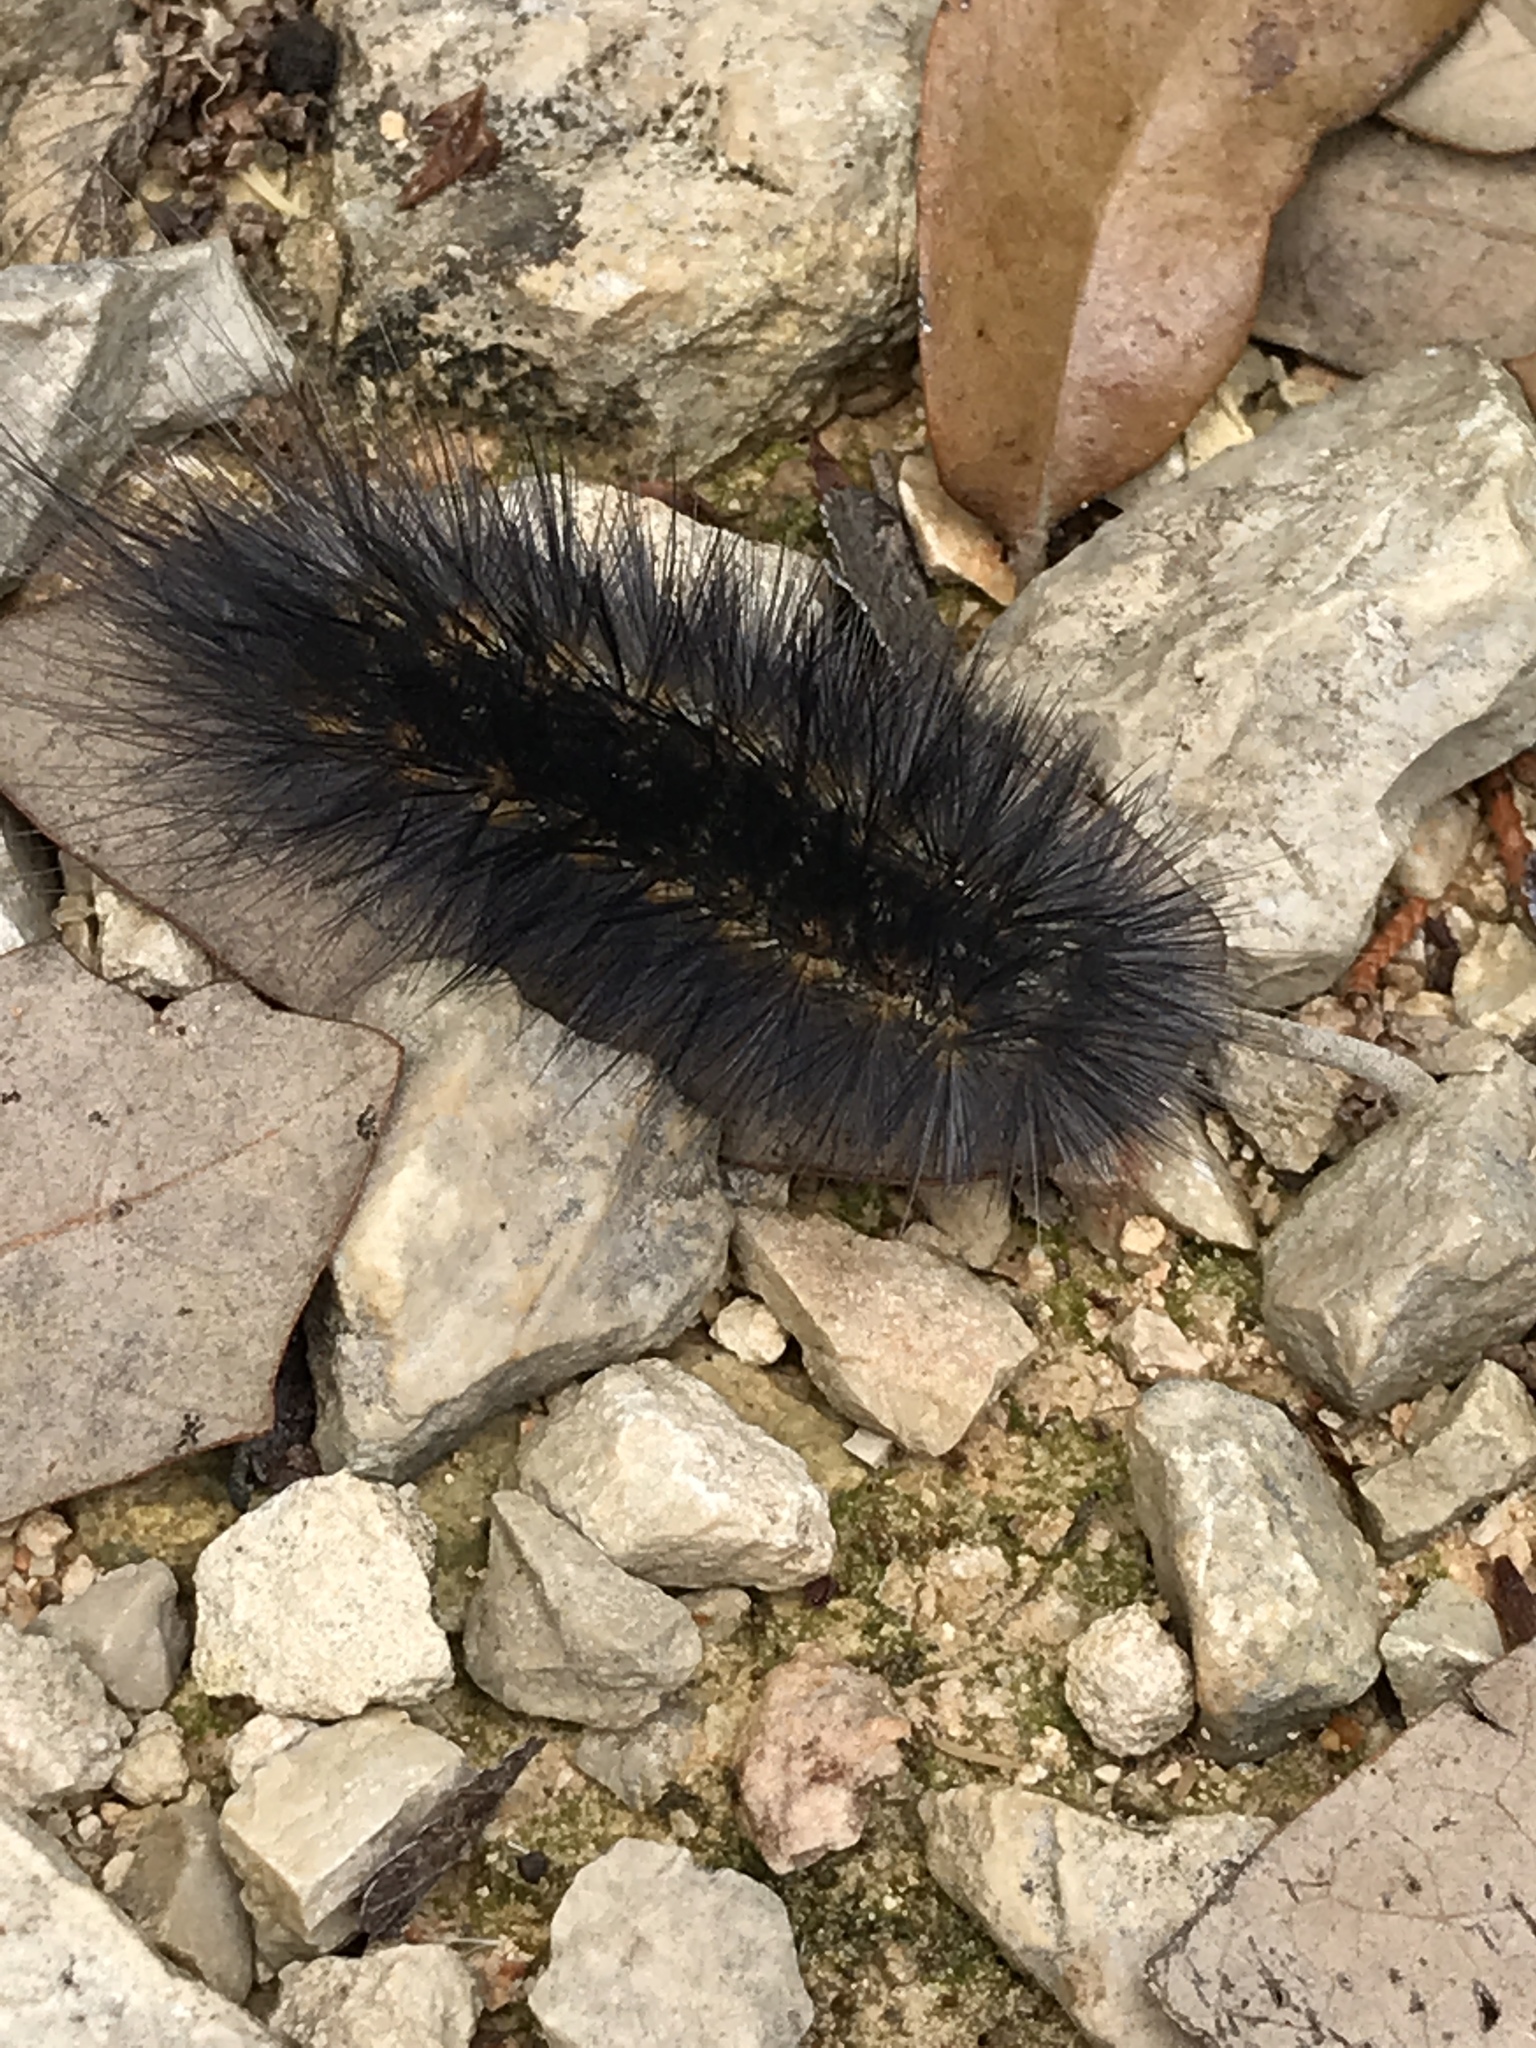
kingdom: Animalia
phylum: Arthropoda
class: Insecta
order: Lepidoptera
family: Erebidae
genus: Estigmene
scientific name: Estigmene acrea
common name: Salt marsh moth
